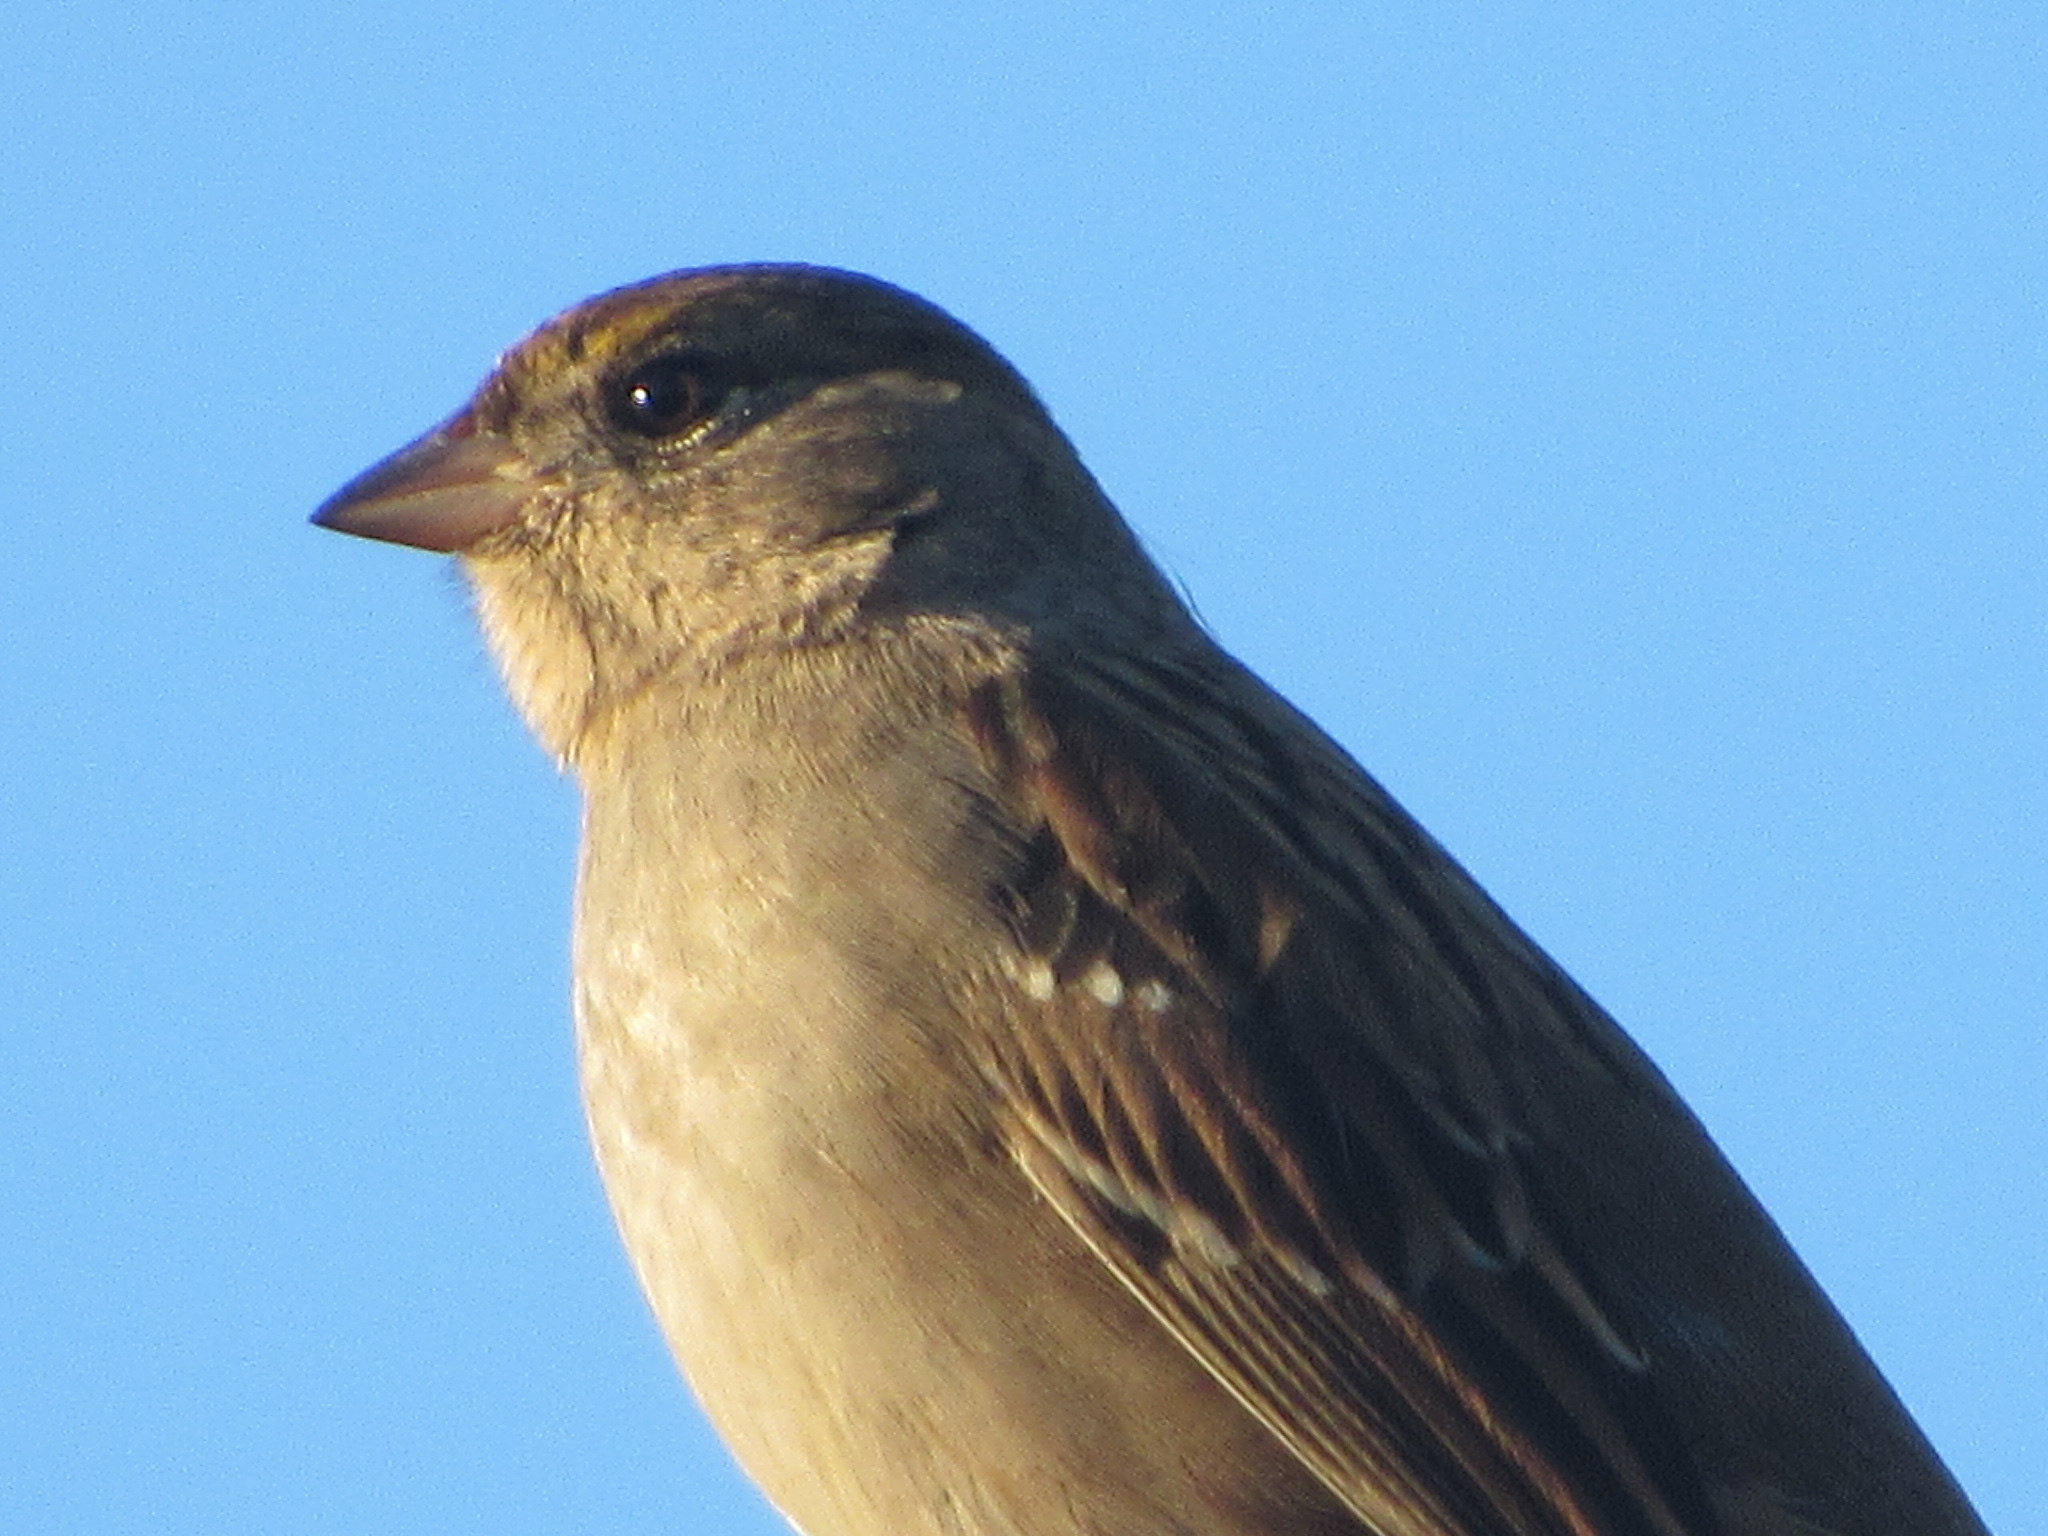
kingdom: Animalia
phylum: Chordata
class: Aves
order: Passeriformes
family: Passerellidae
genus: Zonotrichia
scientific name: Zonotrichia atricapilla
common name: Golden-crowned sparrow
